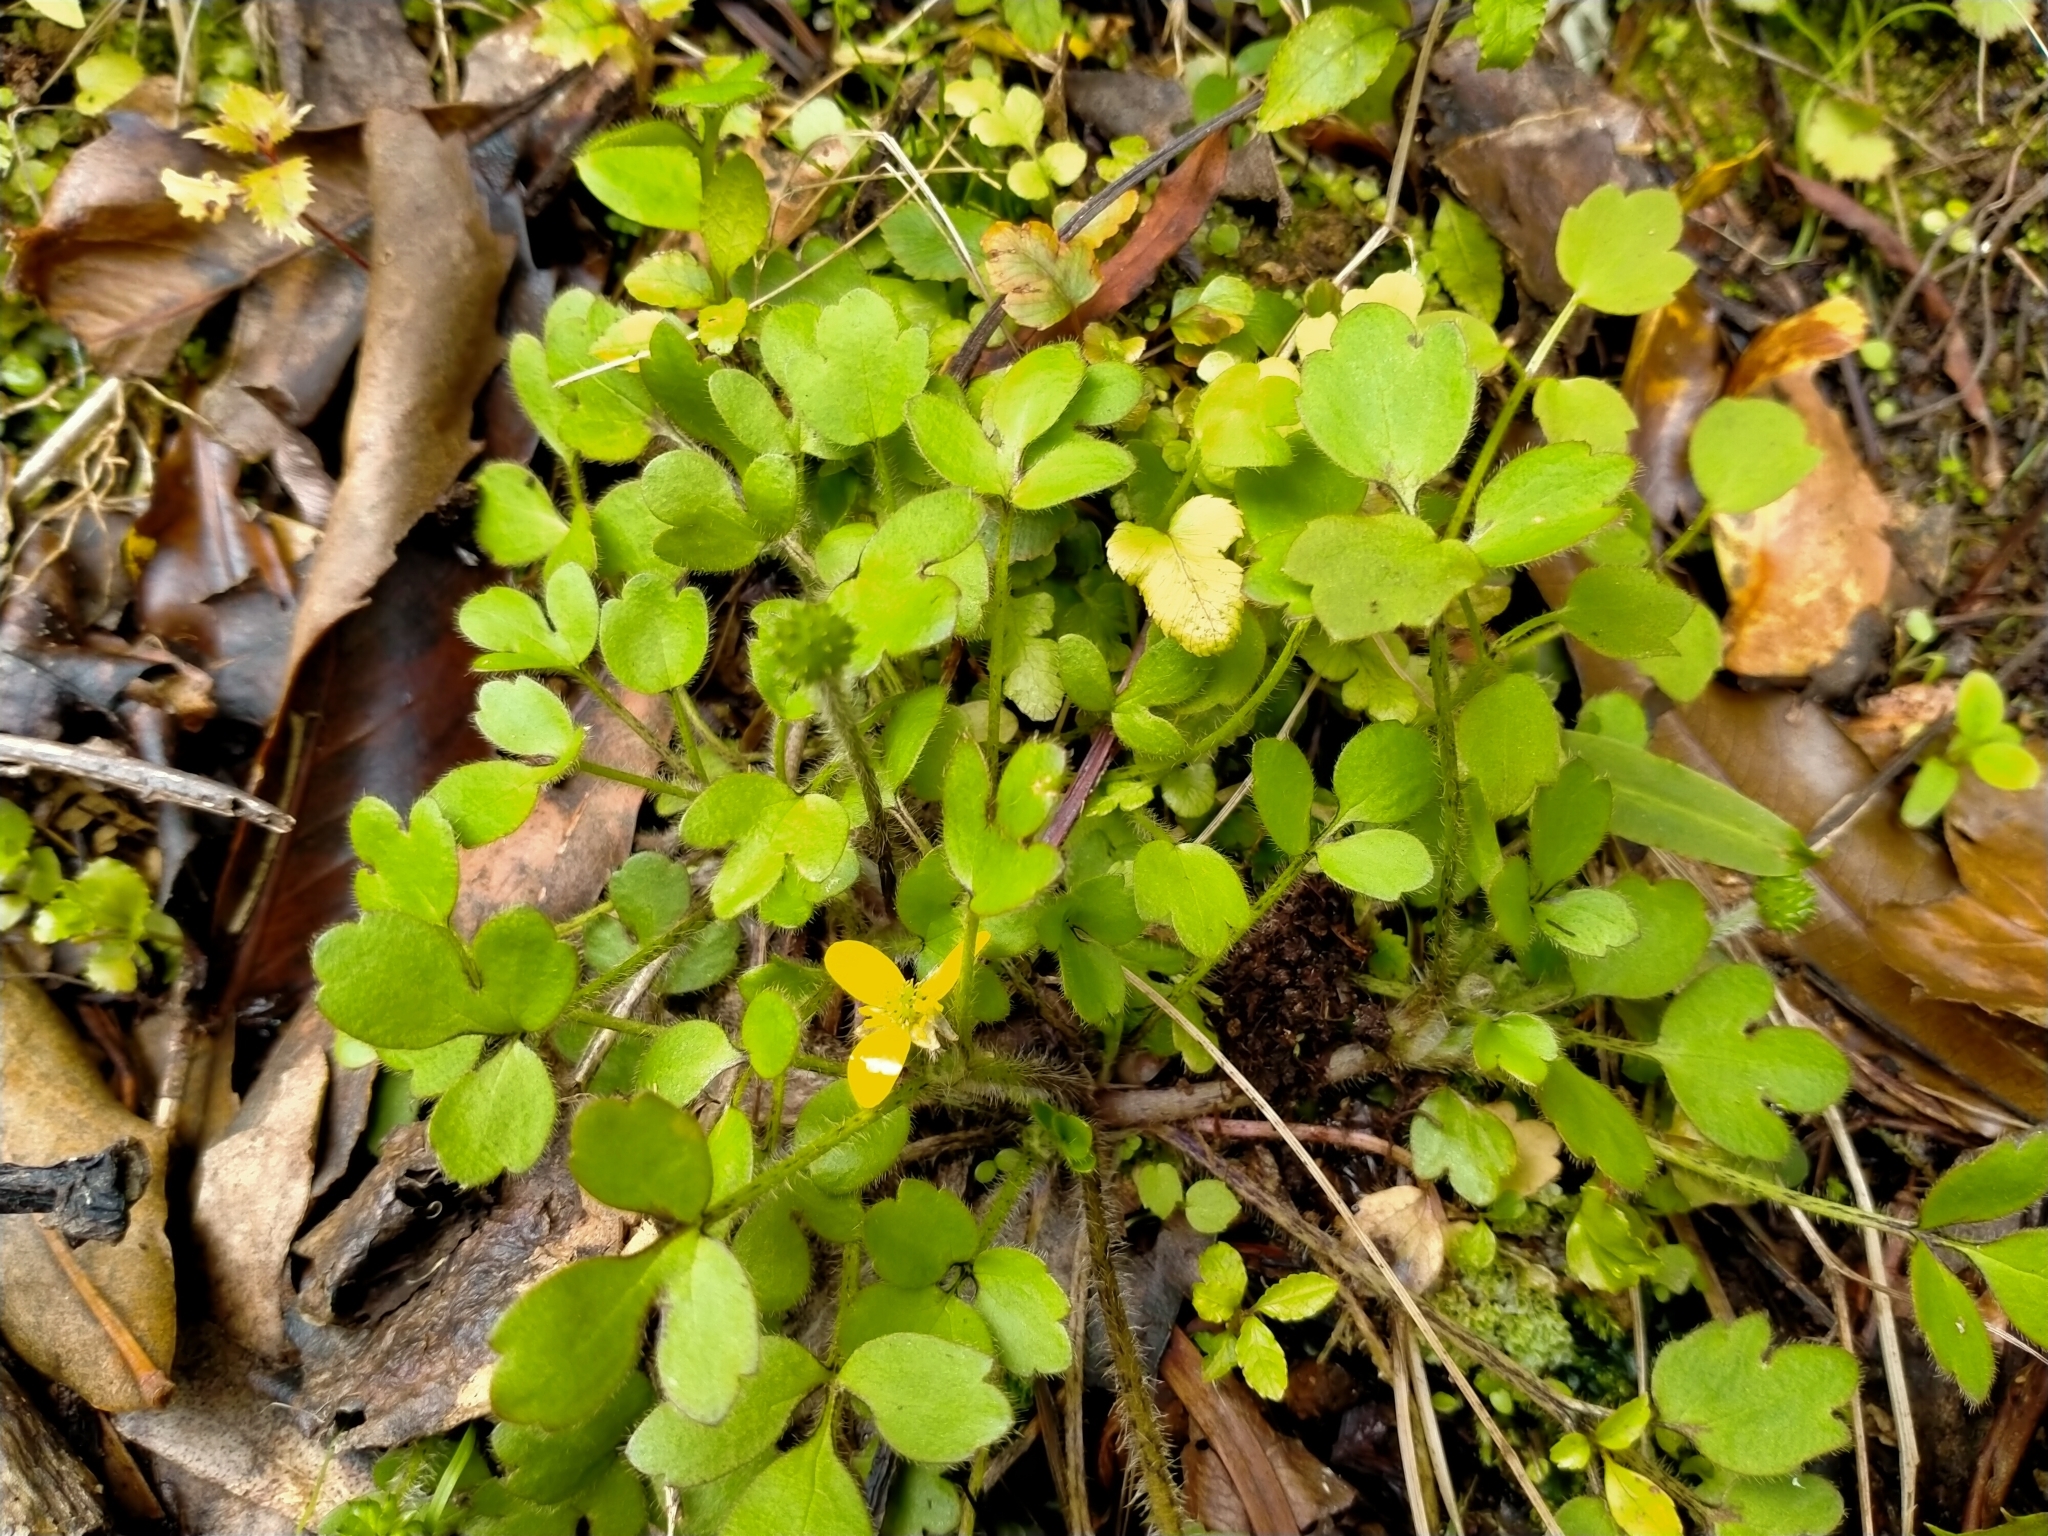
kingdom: Plantae
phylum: Tracheophyta
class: Magnoliopsida
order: Ranunculales
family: Ranunculaceae
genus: Ranunculus
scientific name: Ranunculus reflexus
